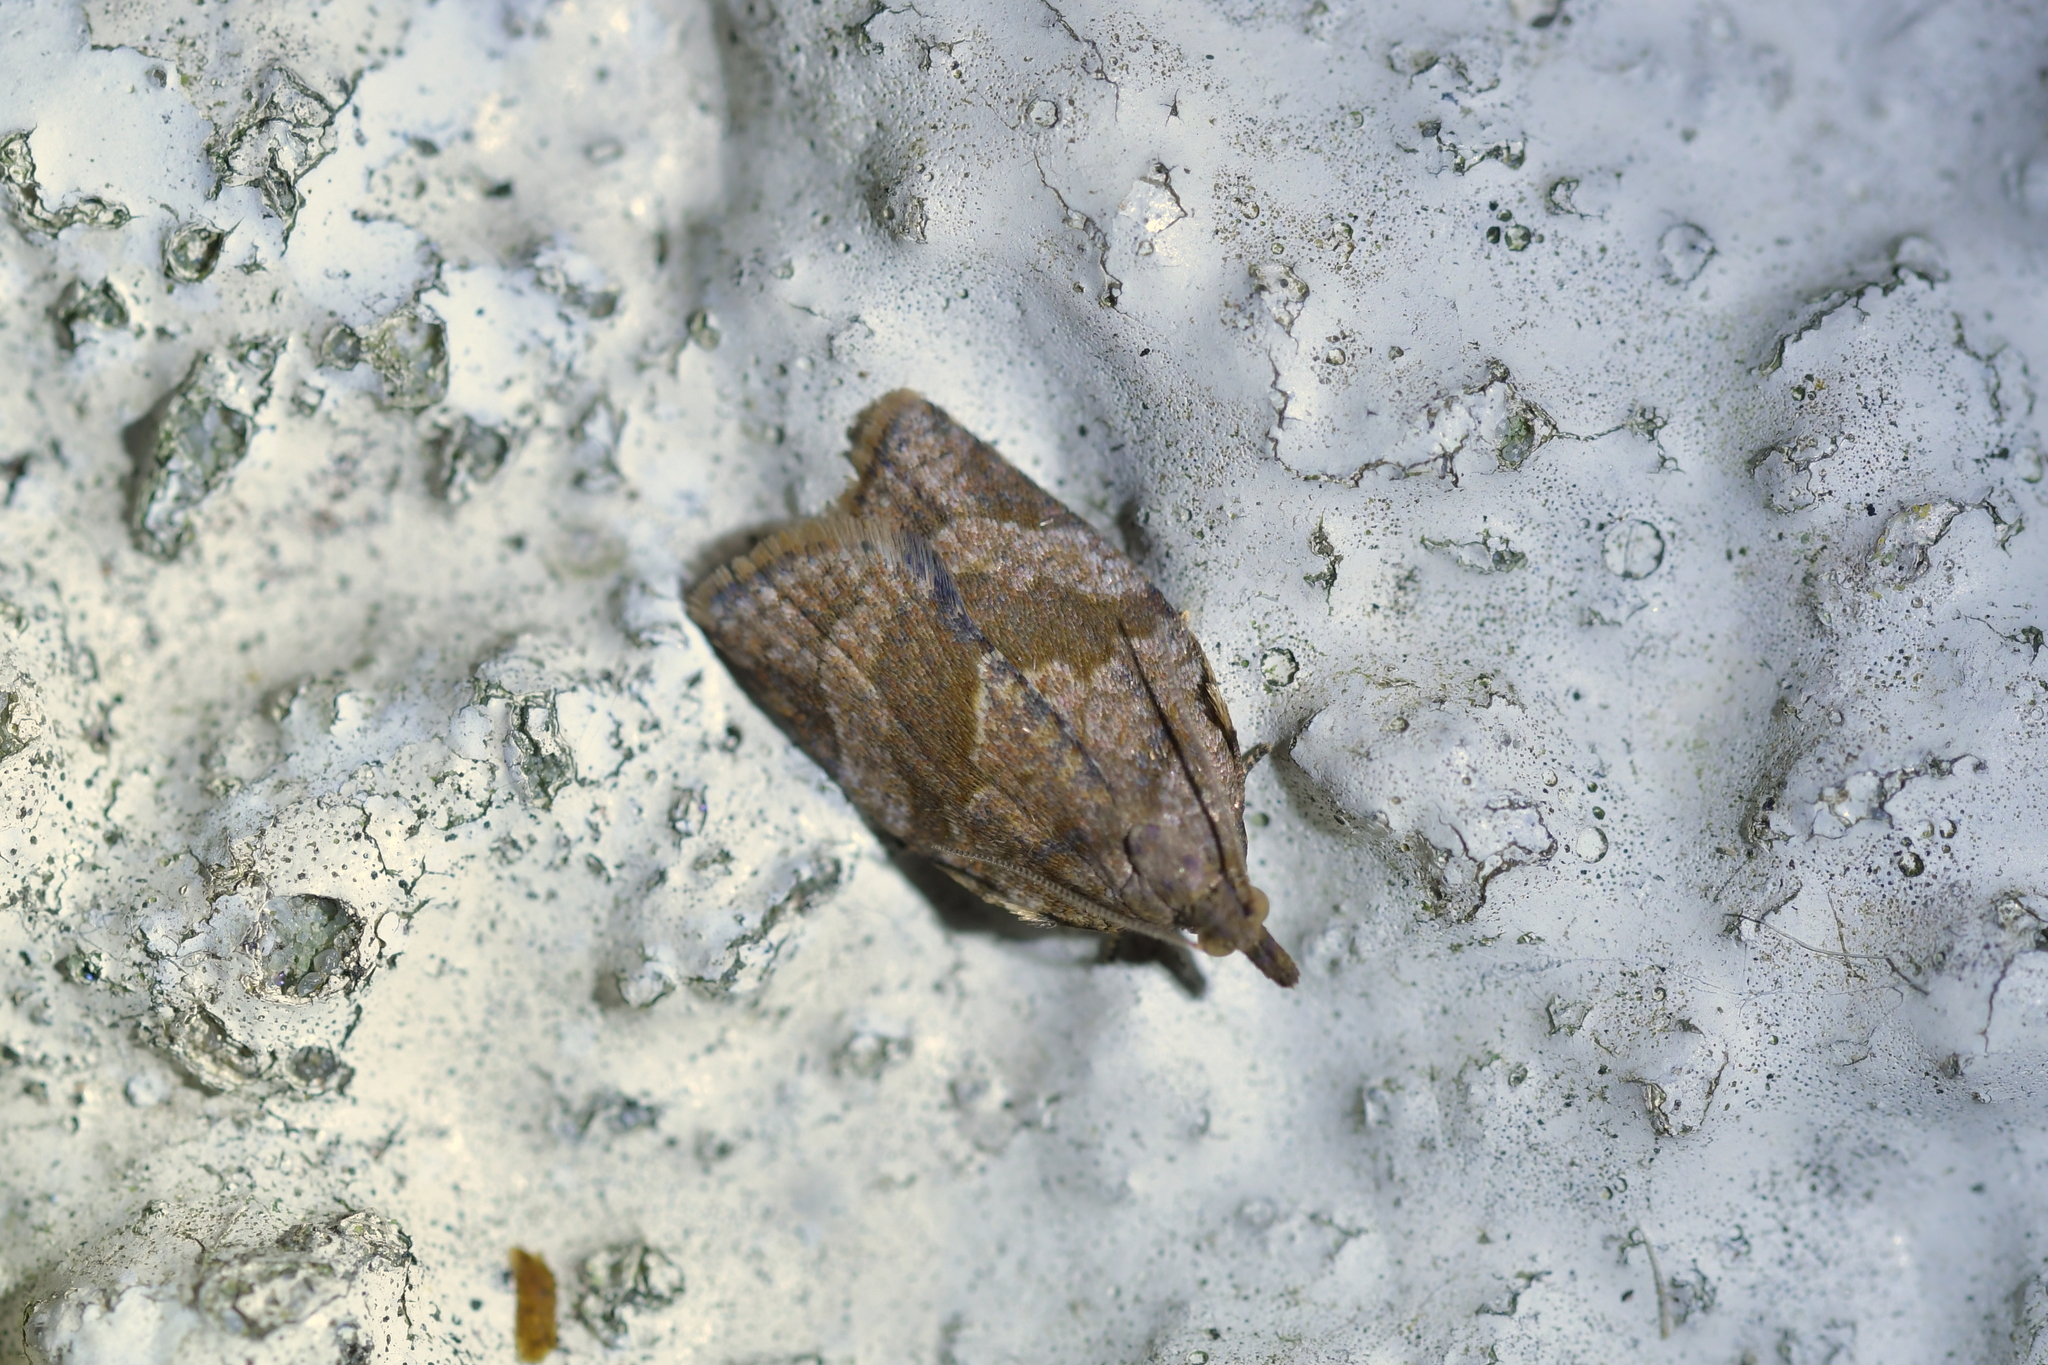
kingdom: Animalia
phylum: Arthropoda
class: Insecta
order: Lepidoptera
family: Tortricidae
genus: Epiphyas
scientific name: Epiphyas postvittana
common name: Light brown apple moth
